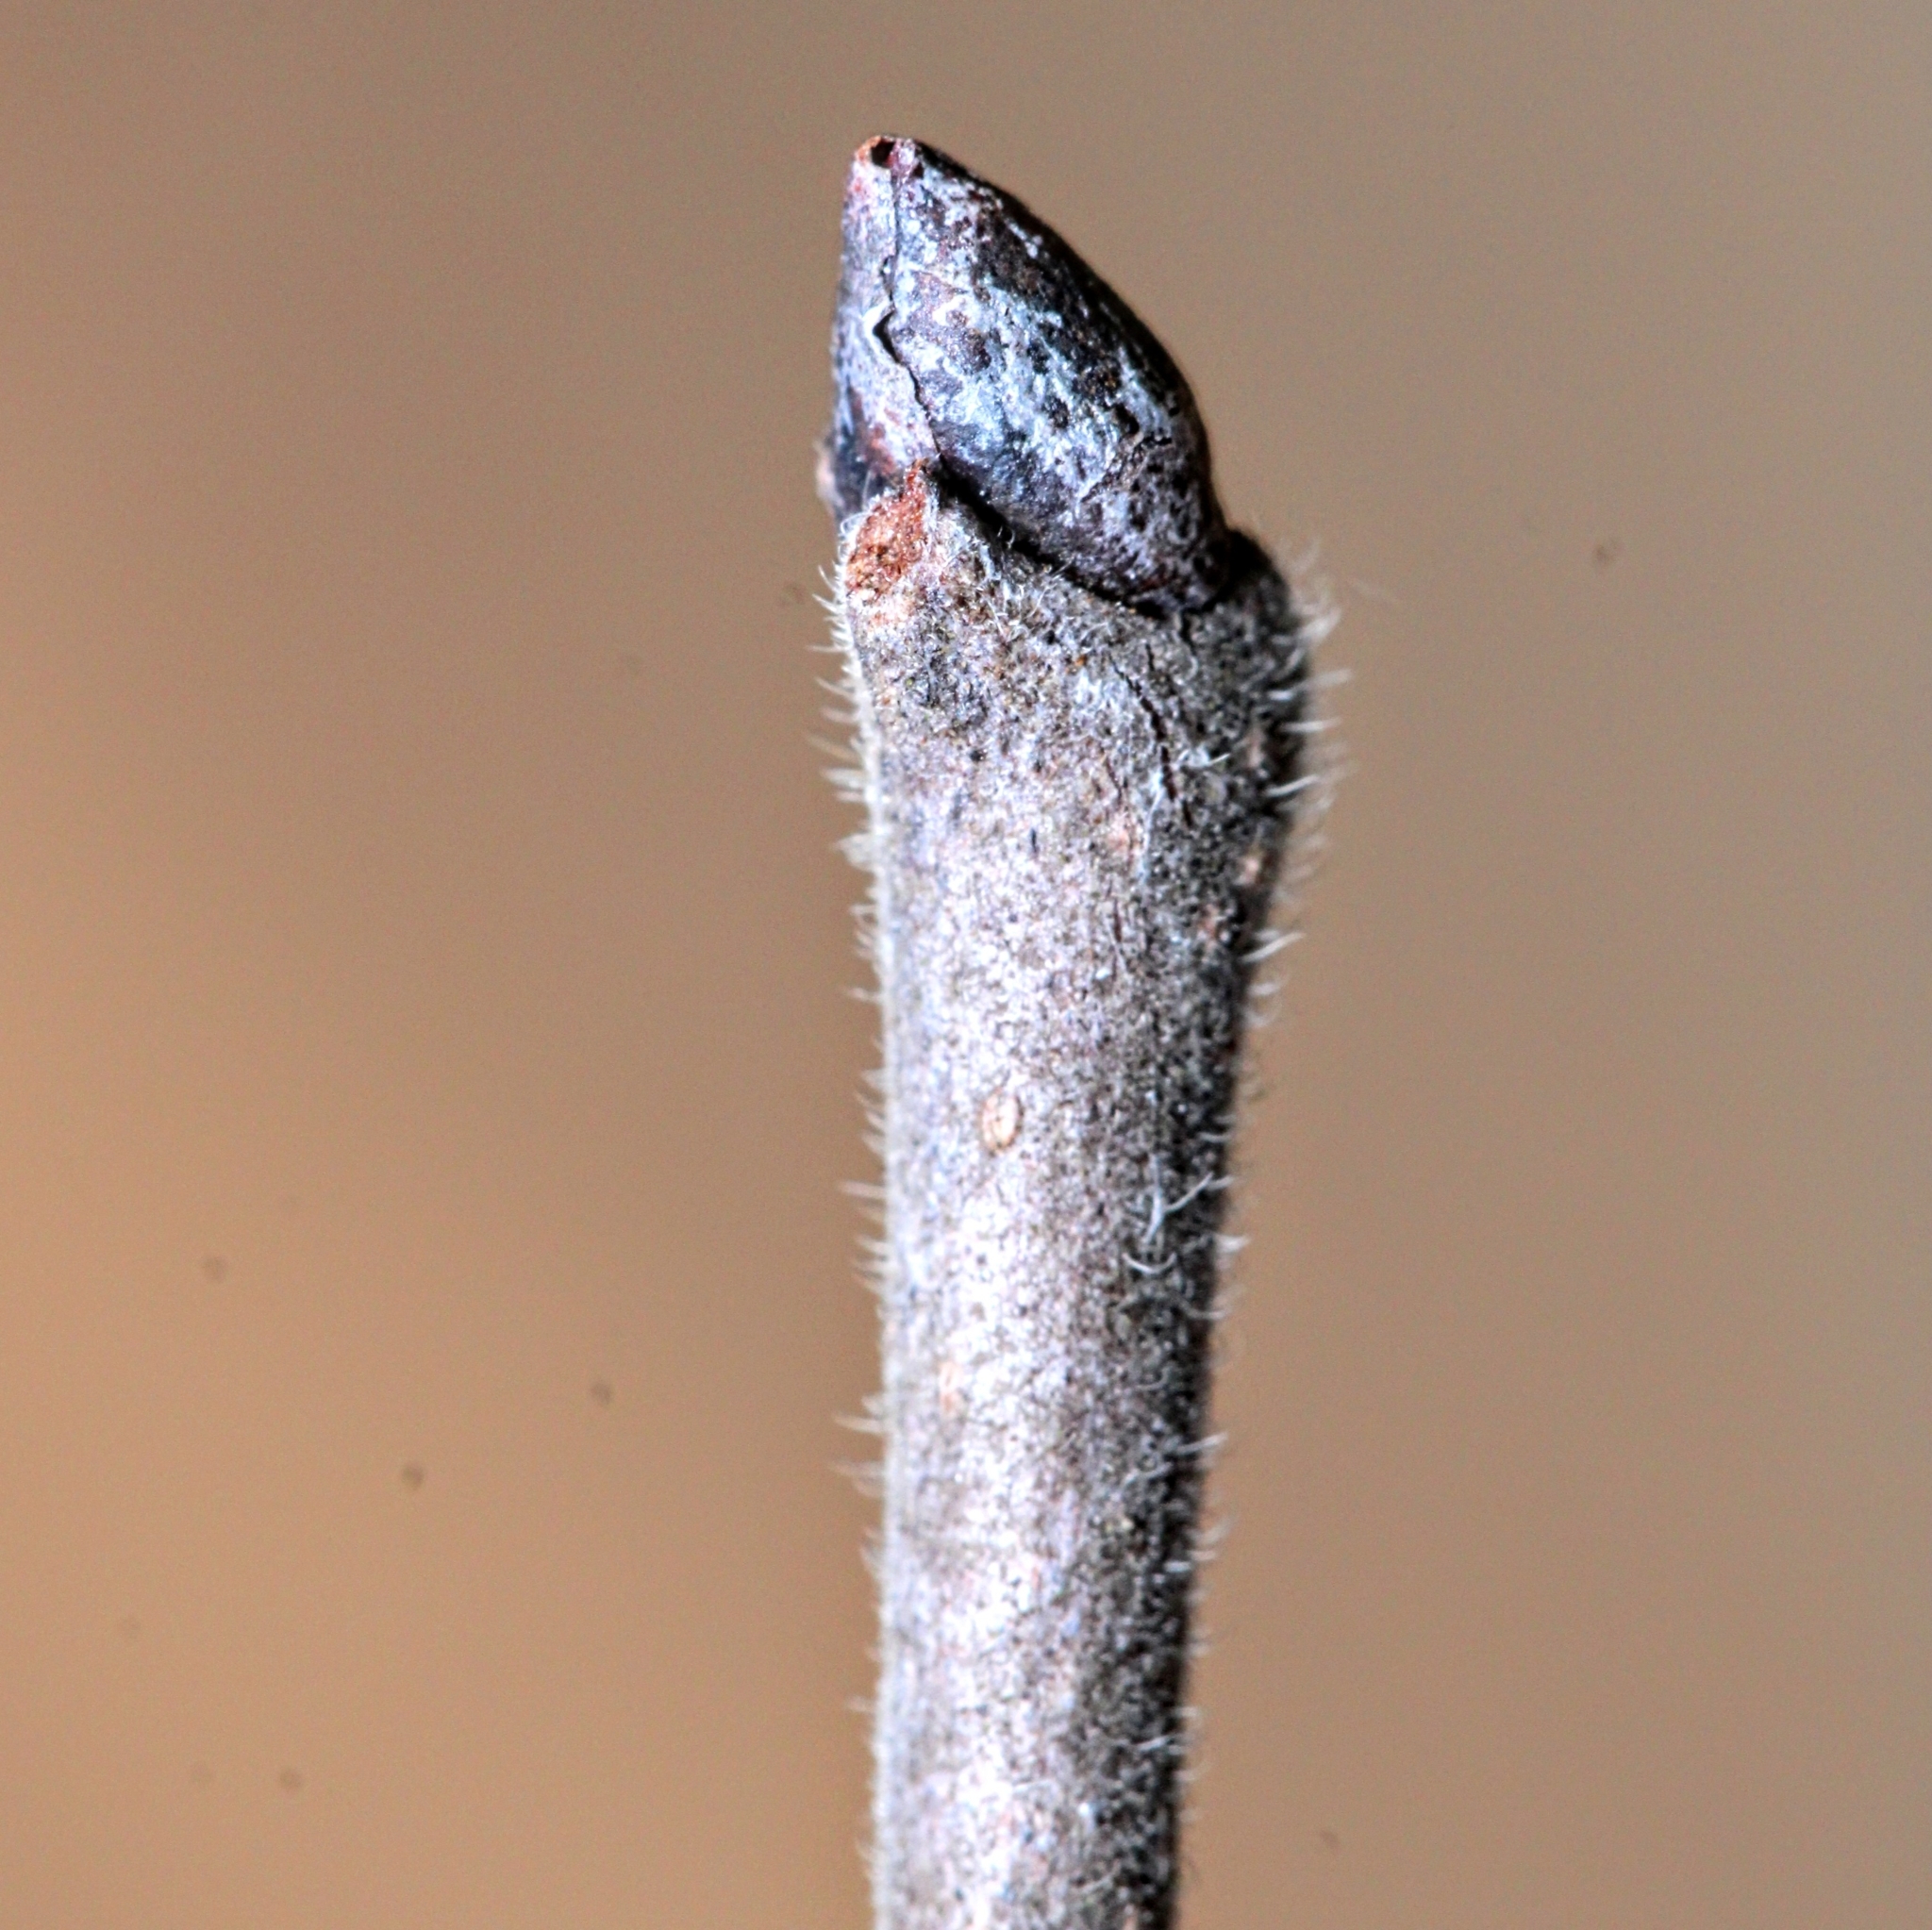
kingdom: Plantae
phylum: Tracheophyta
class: Magnoliopsida
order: Ericales
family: Ebenaceae
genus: Diospyros
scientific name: Diospyros virginiana
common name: Persimmon
